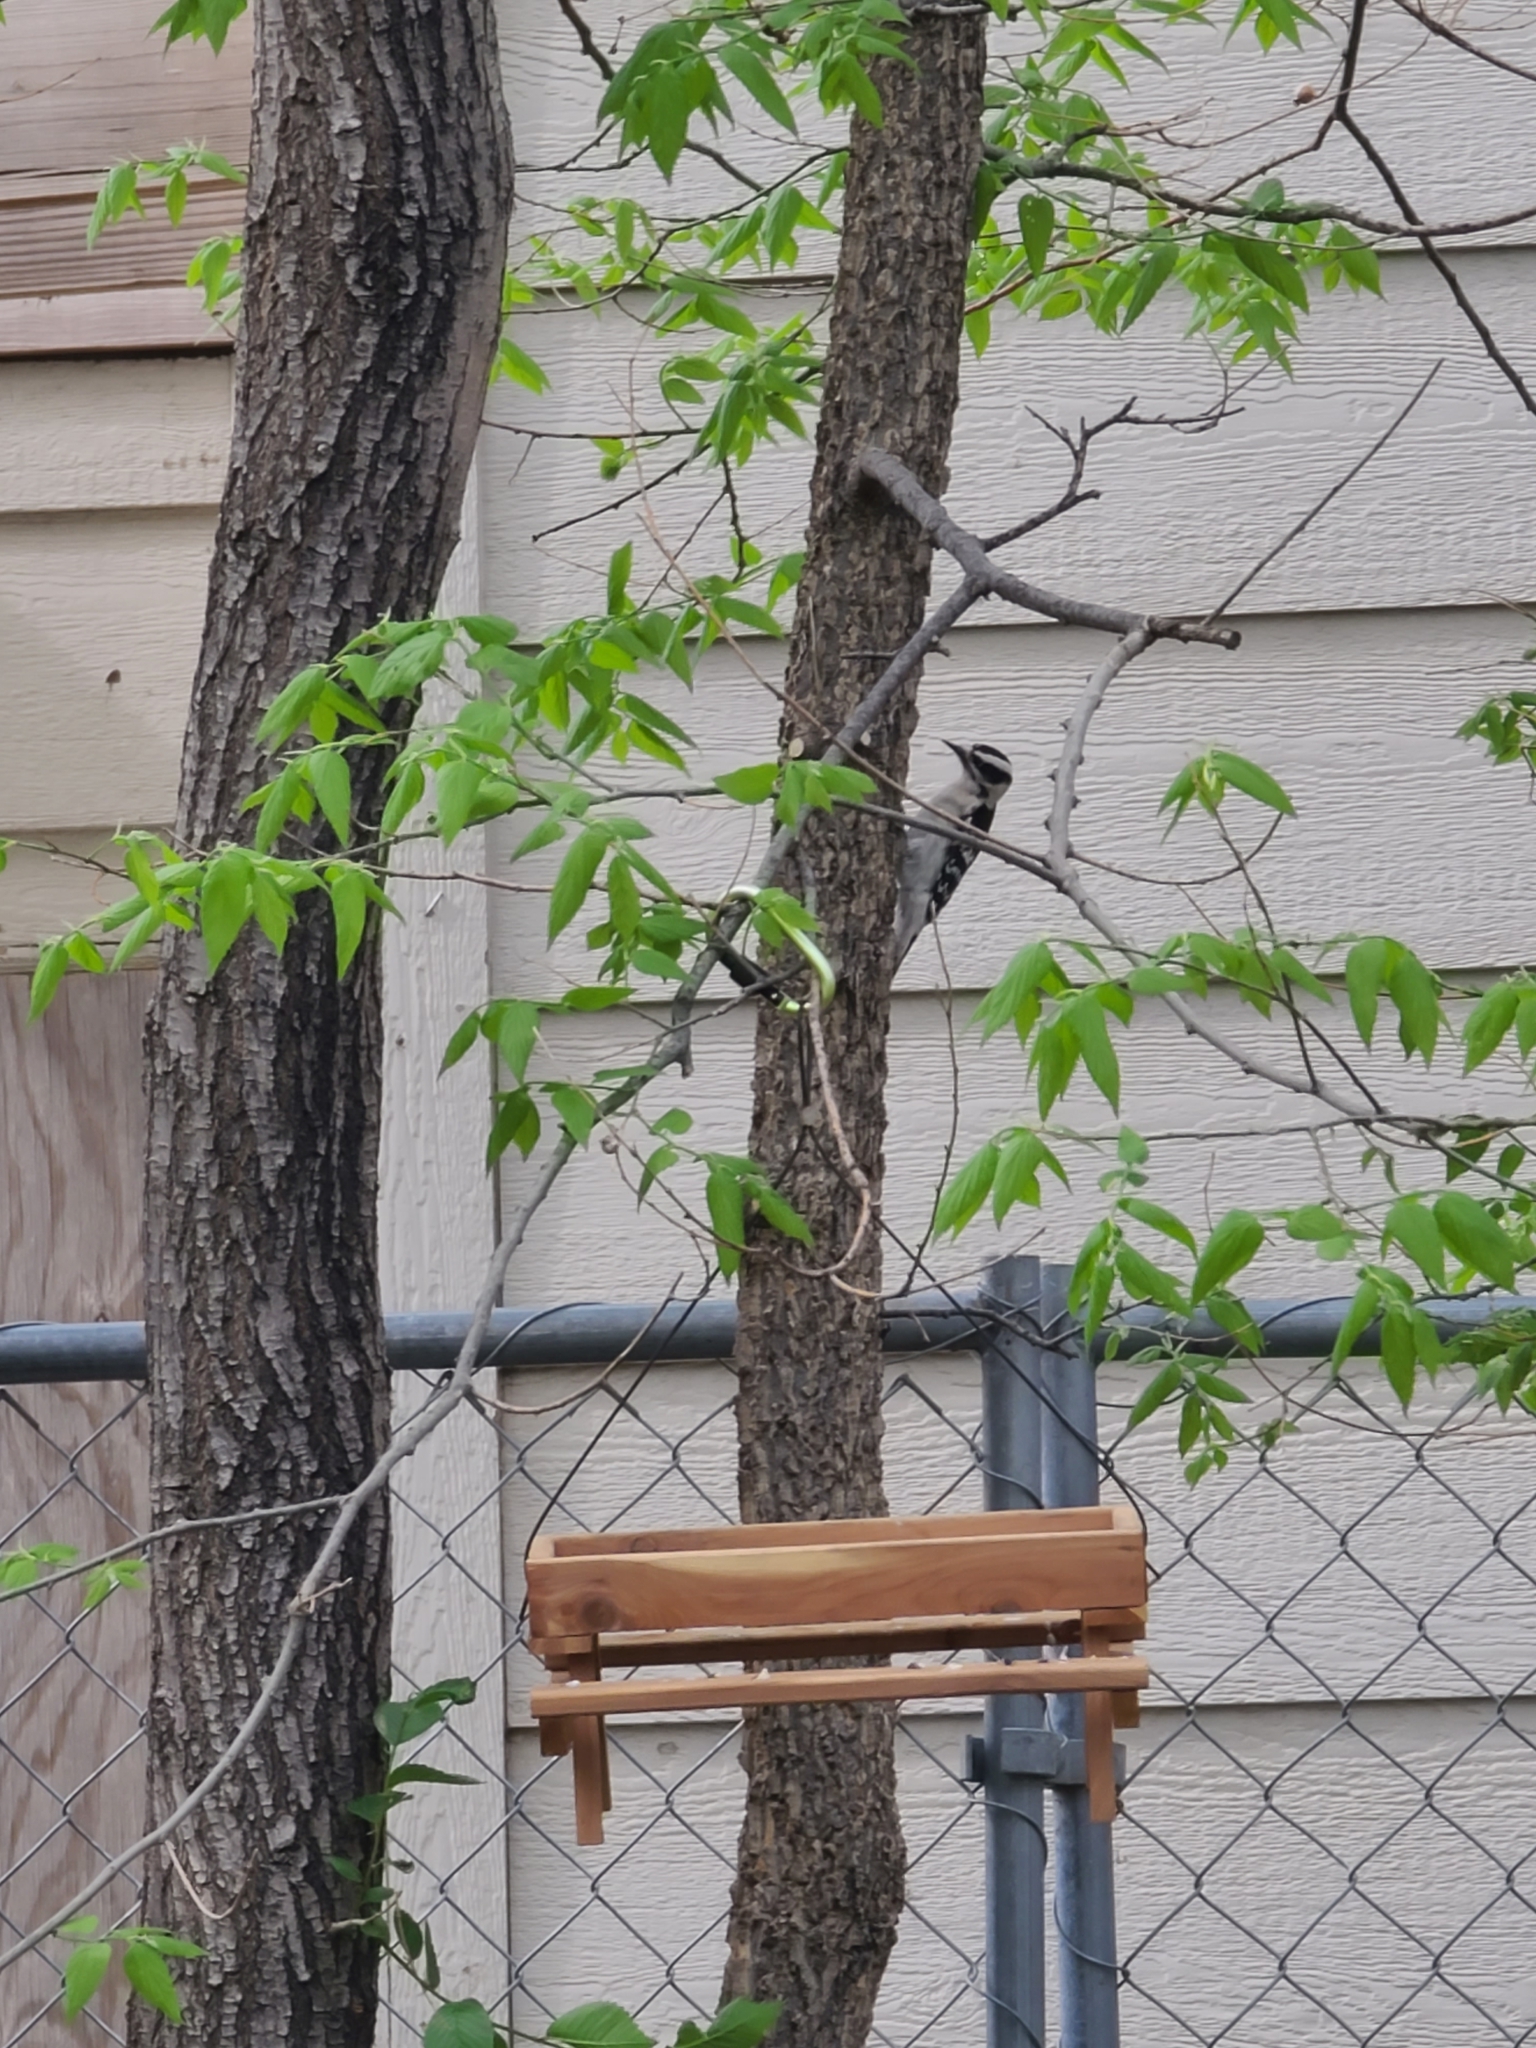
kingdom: Animalia
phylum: Chordata
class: Aves
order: Piciformes
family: Picidae
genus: Dryobates
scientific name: Dryobates pubescens
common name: Downy woodpecker
